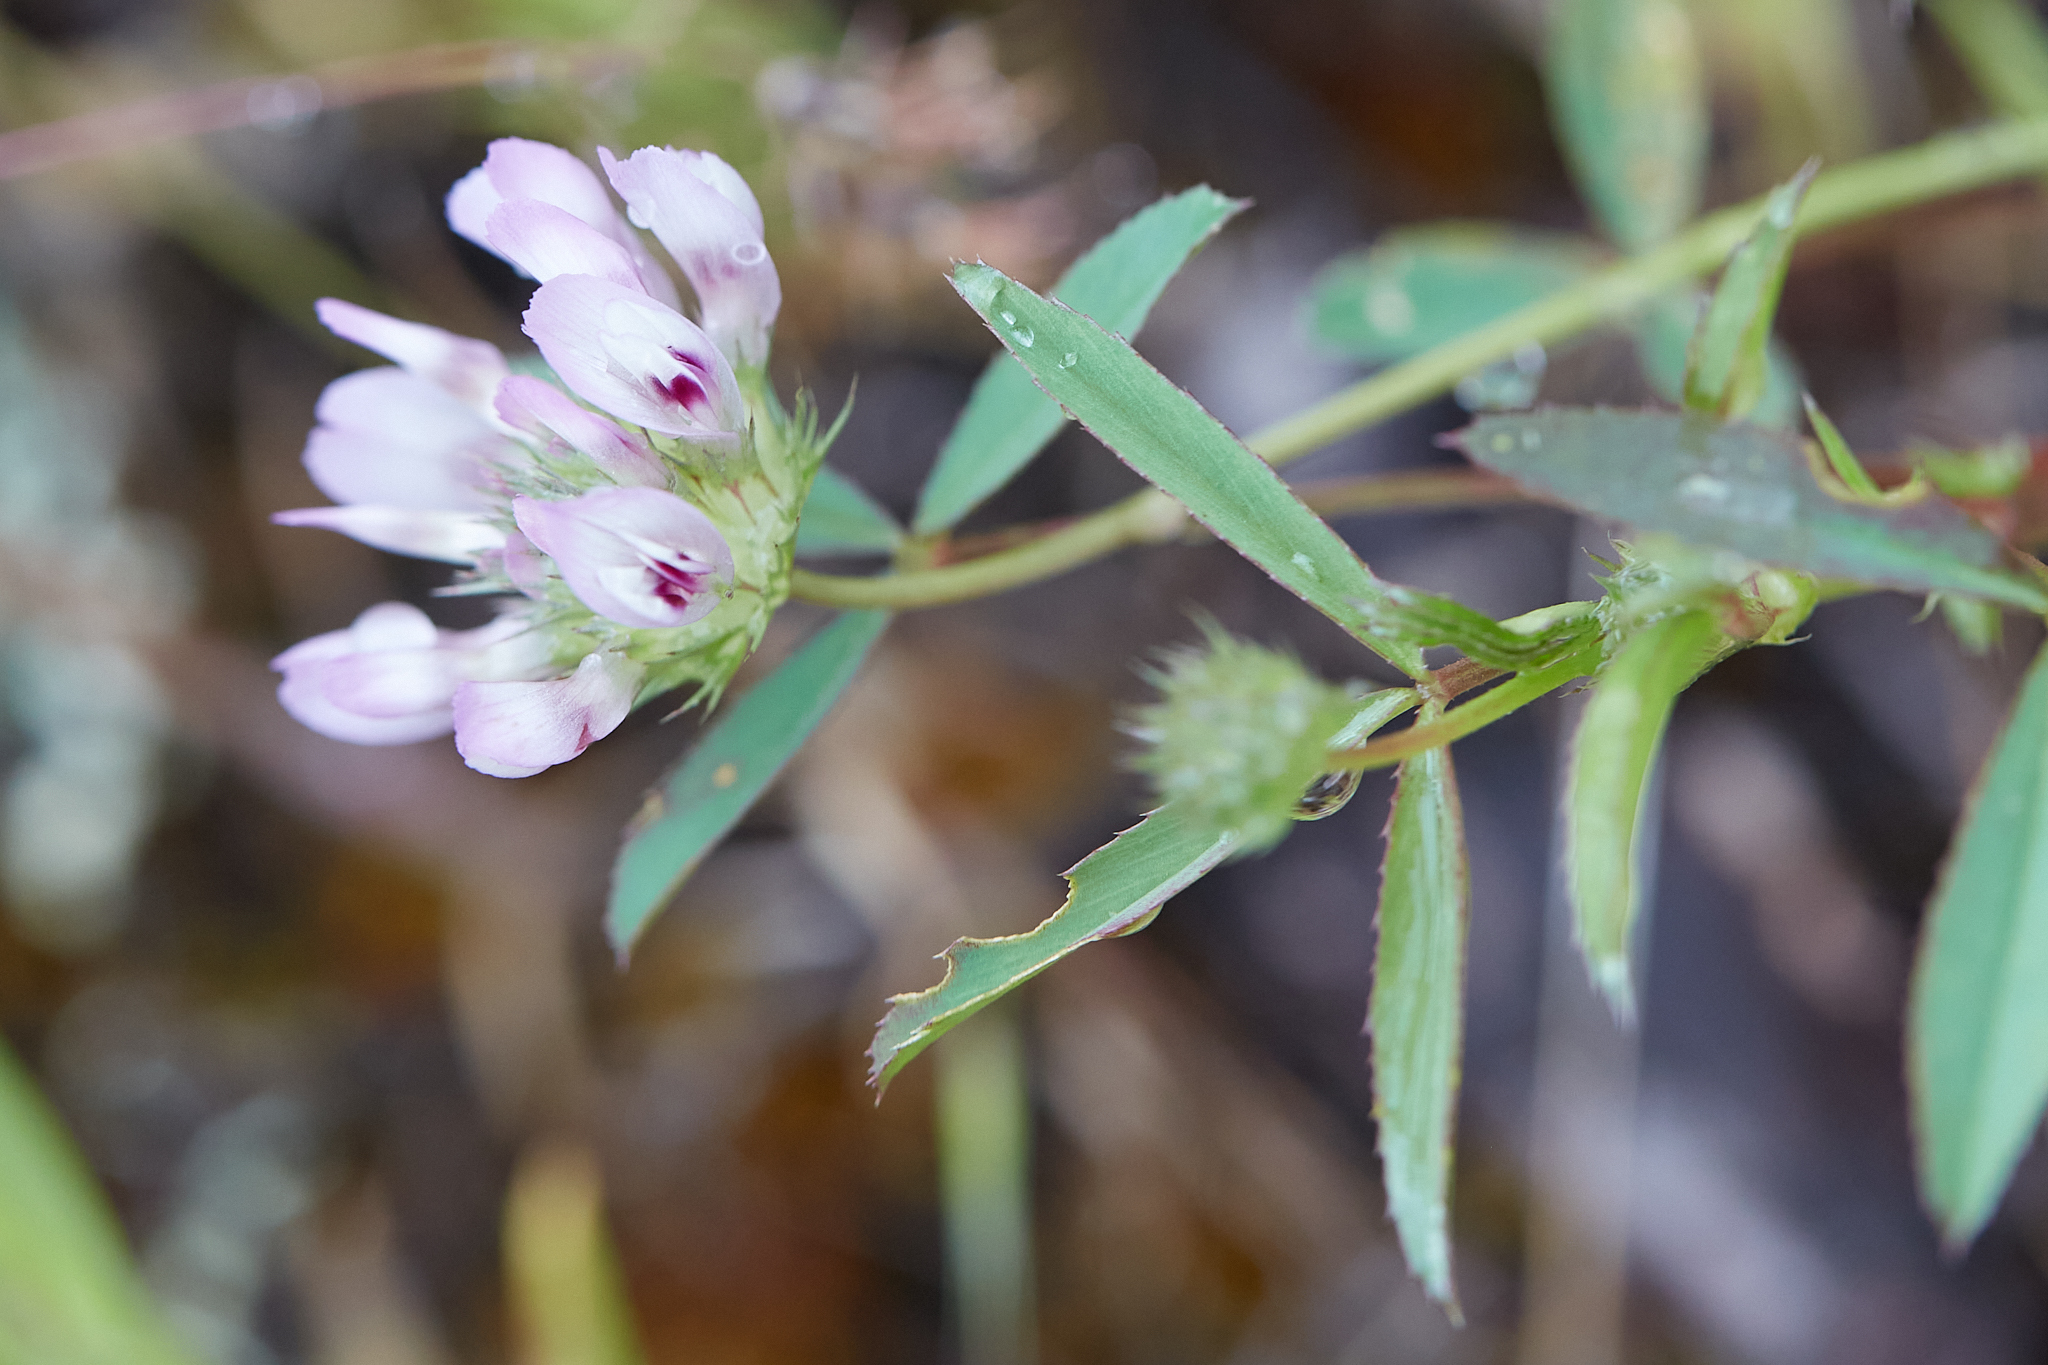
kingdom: Plantae
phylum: Tracheophyta
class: Magnoliopsida
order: Fabales
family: Fabaceae
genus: Trifolium
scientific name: Trifolium willdenovii
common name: Tomcat clover
